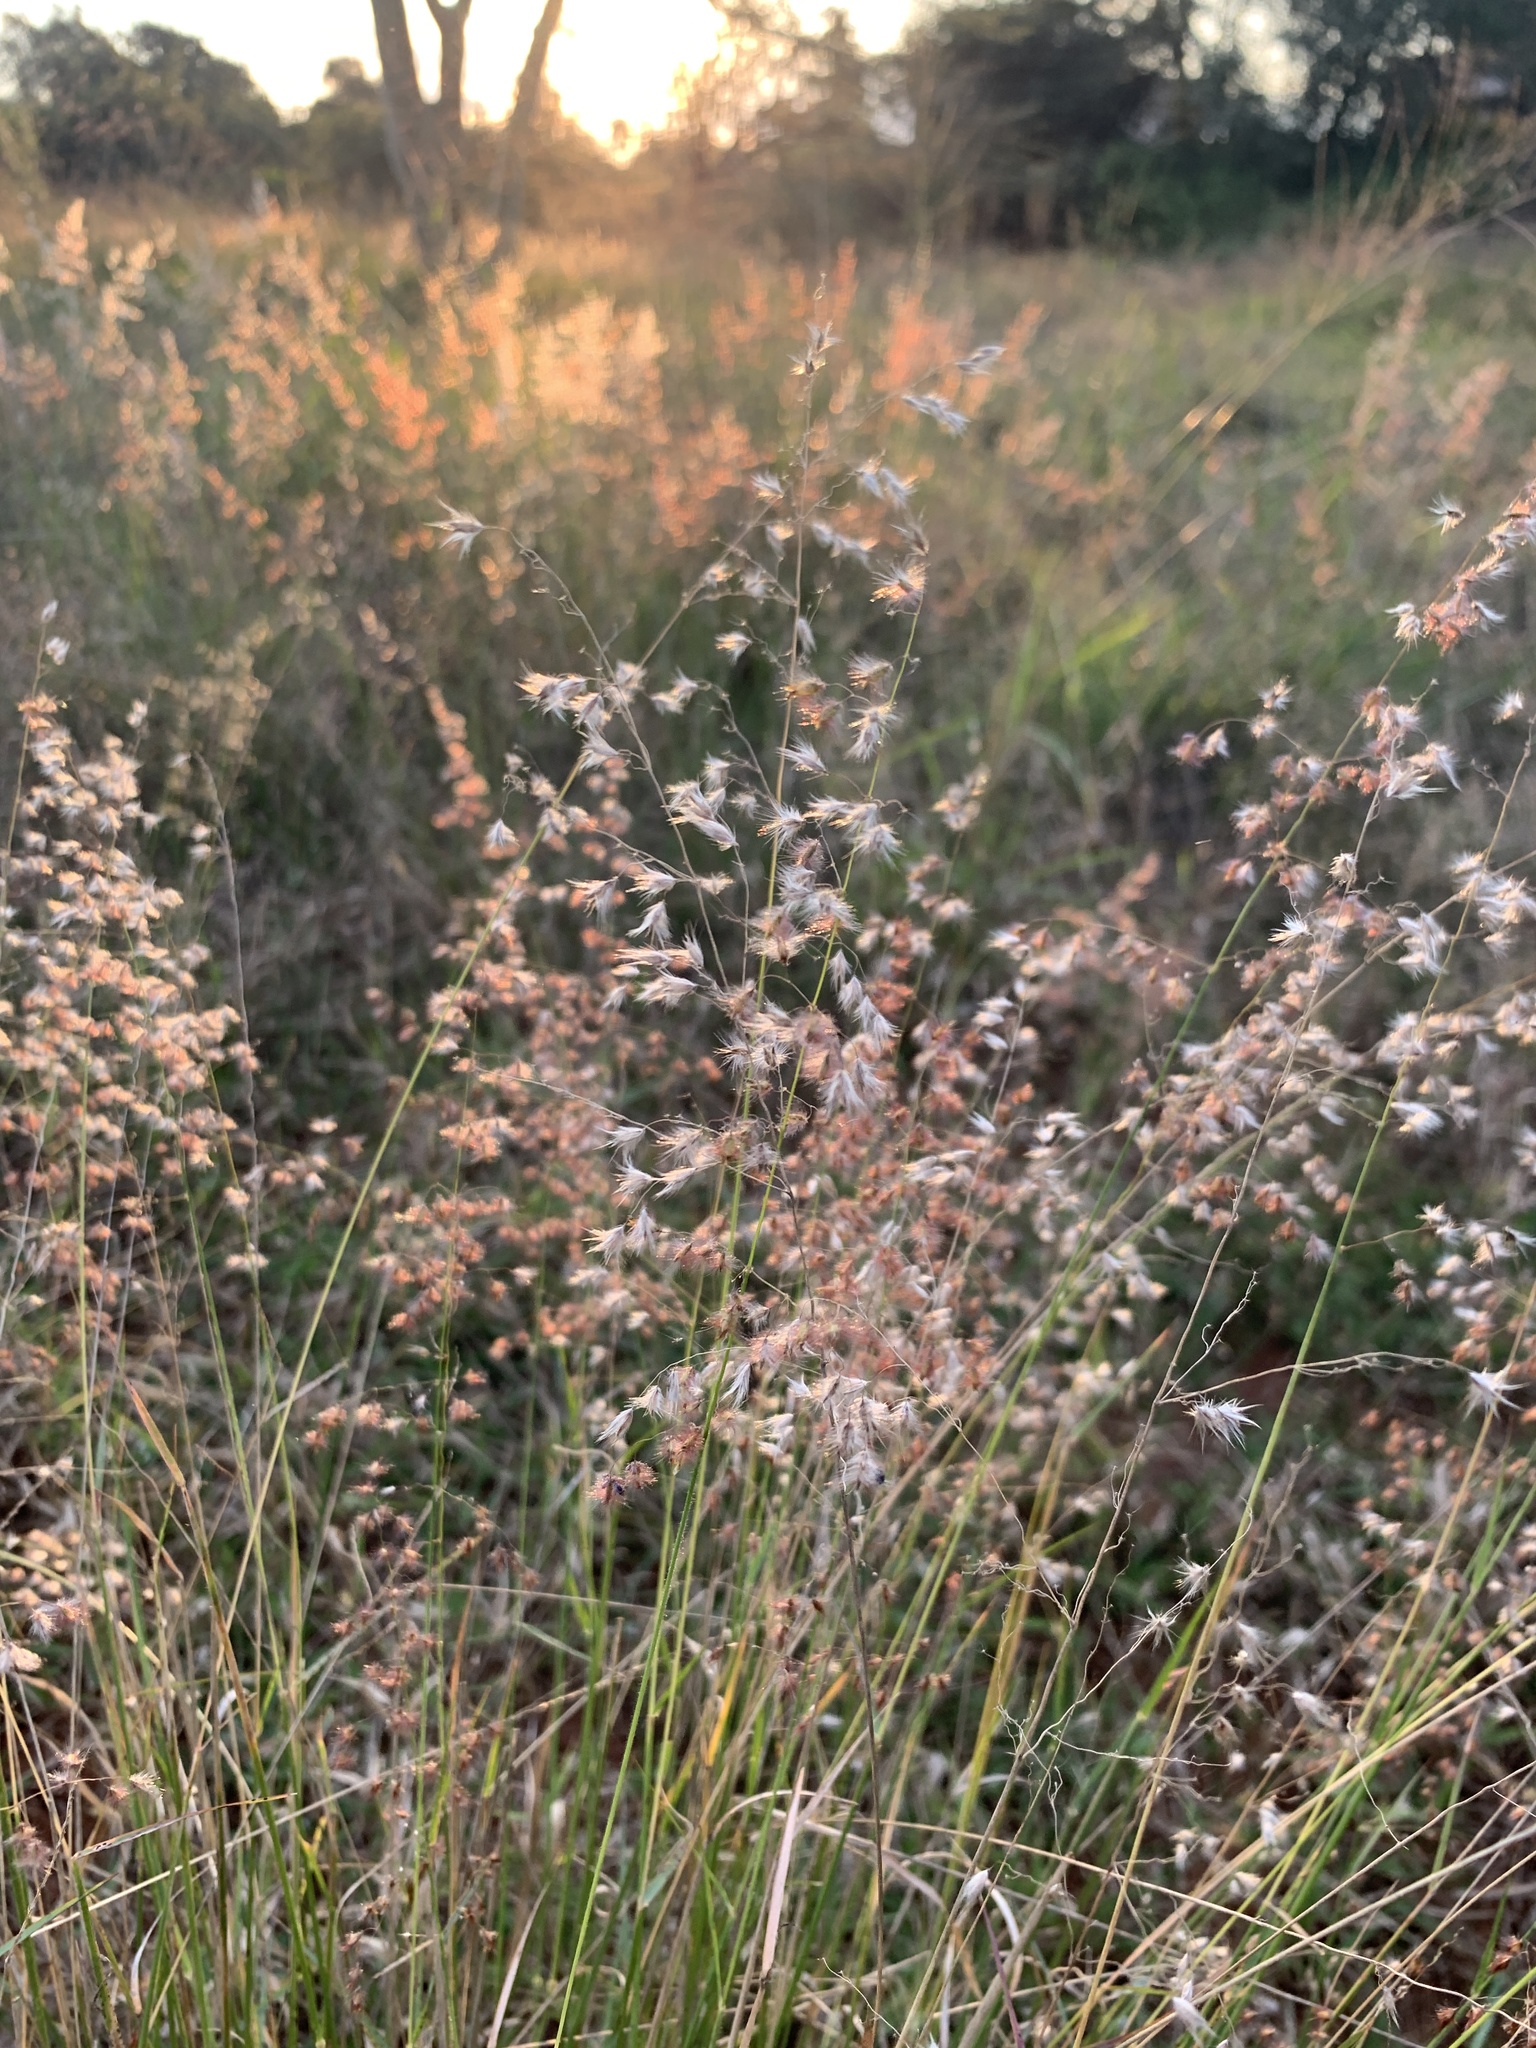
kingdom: Plantae
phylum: Tracheophyta
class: Liliopsida
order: Poales
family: Poaceae
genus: Melinis
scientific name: Melinis repens
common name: Rose natal grass
